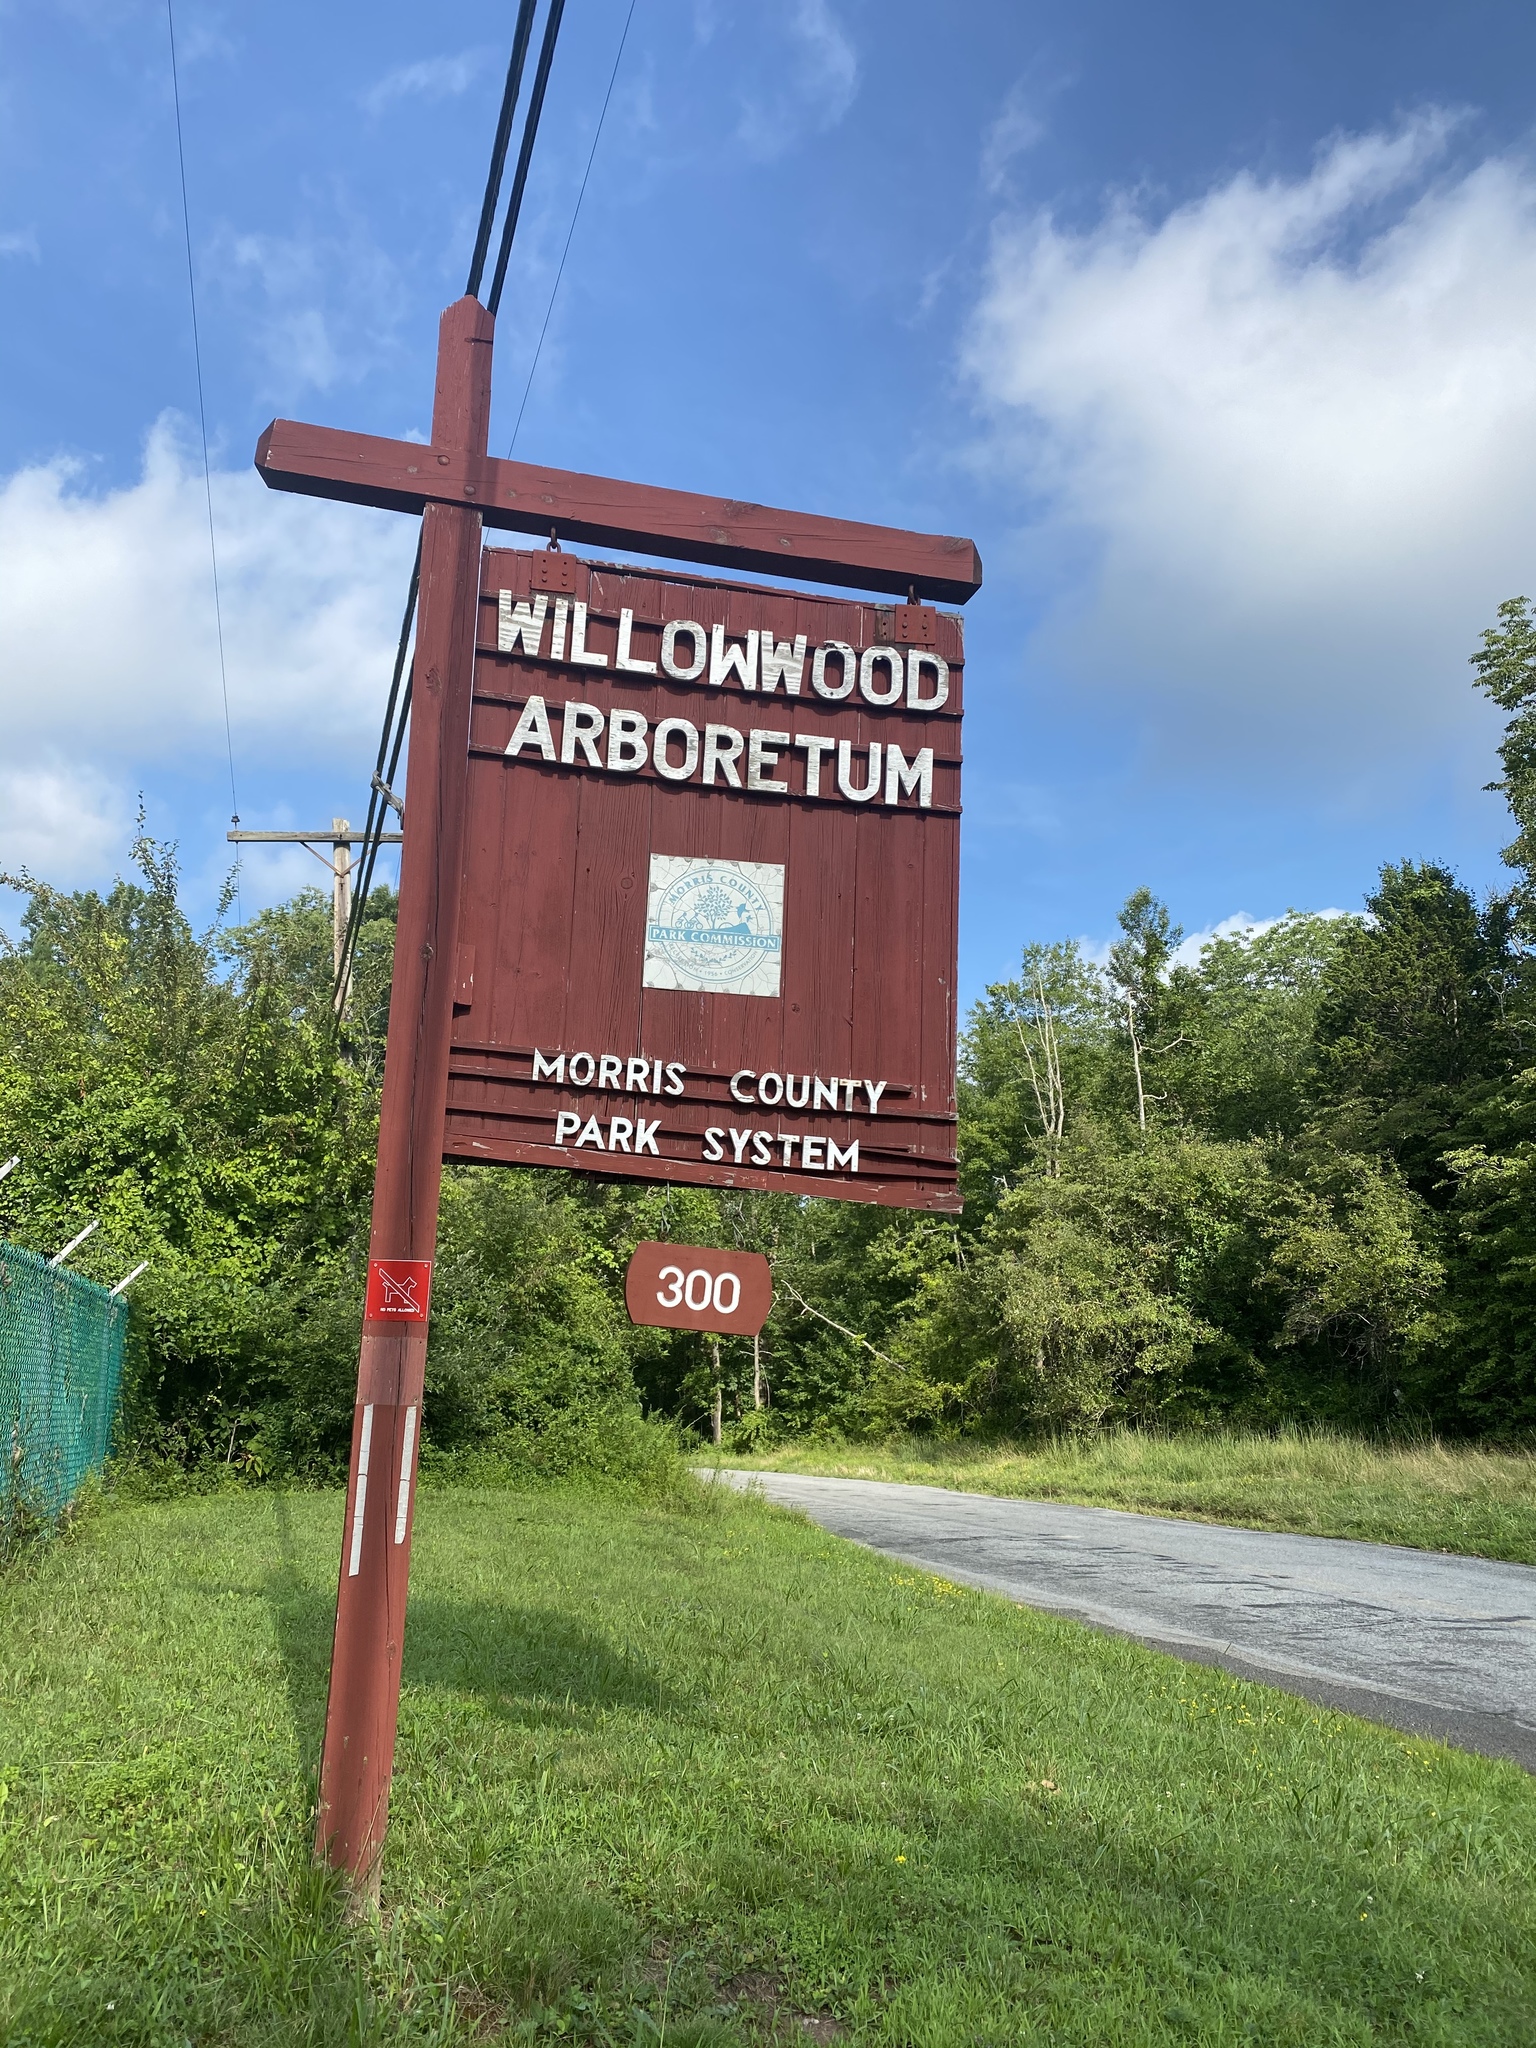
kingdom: Plantae
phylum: Tracheophyta
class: Magnoliopsida
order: Asterales
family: Asteraceae
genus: Centaurea
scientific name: Centaurea nigrescens
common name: Tyrol knapweed
